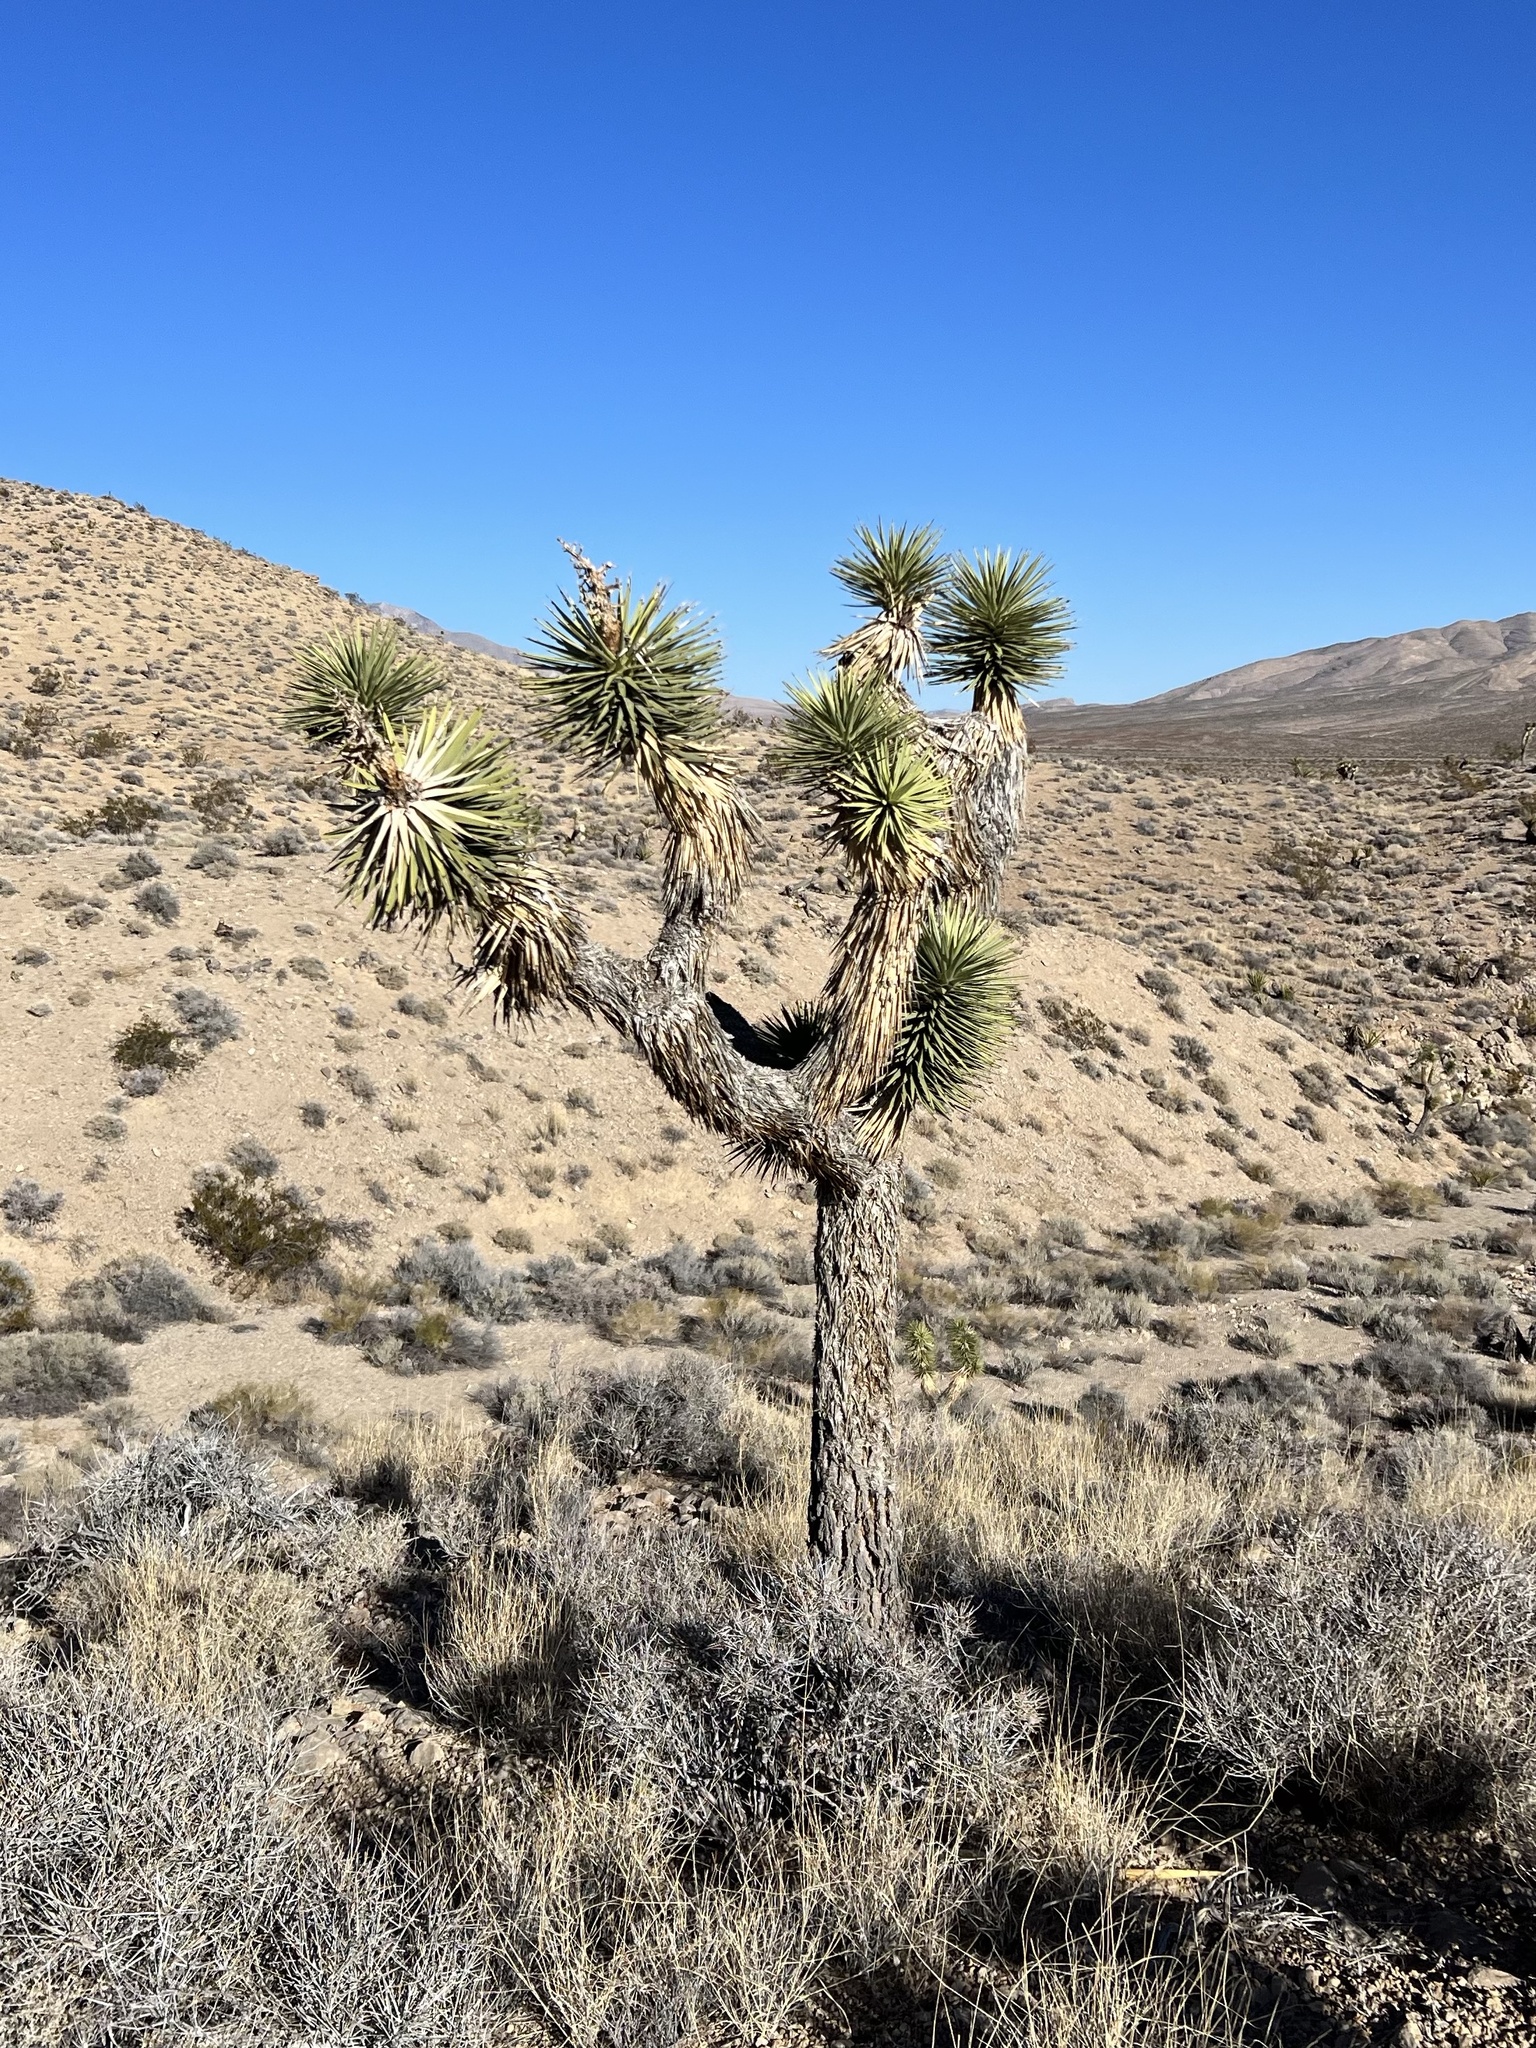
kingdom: Plantae
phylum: Tracheophyta
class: Liliopsida
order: Asparagales
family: Asparagaceae
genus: Yucca
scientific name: Yucca brevifolia
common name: Joshua tree
